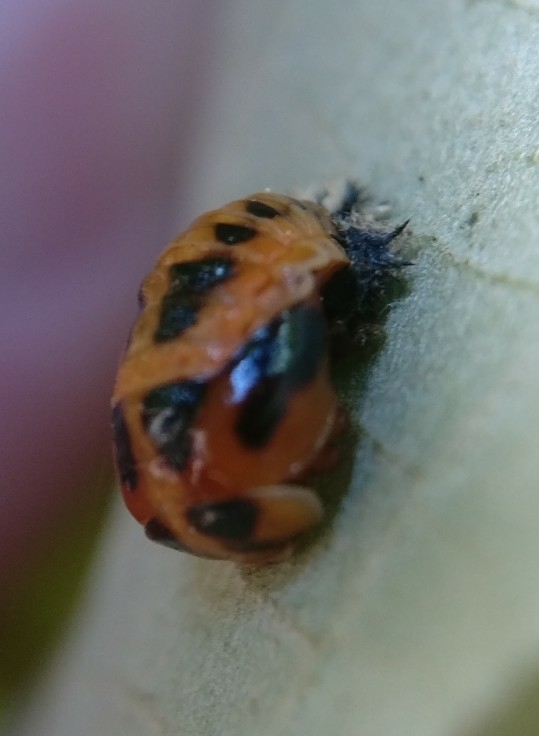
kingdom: Animalia
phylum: Arthropoda
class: Insecta
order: Coleoptera
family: Coccinellidae
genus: Harmonia
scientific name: Harmonia axyridis
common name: Harlequin ladybird
